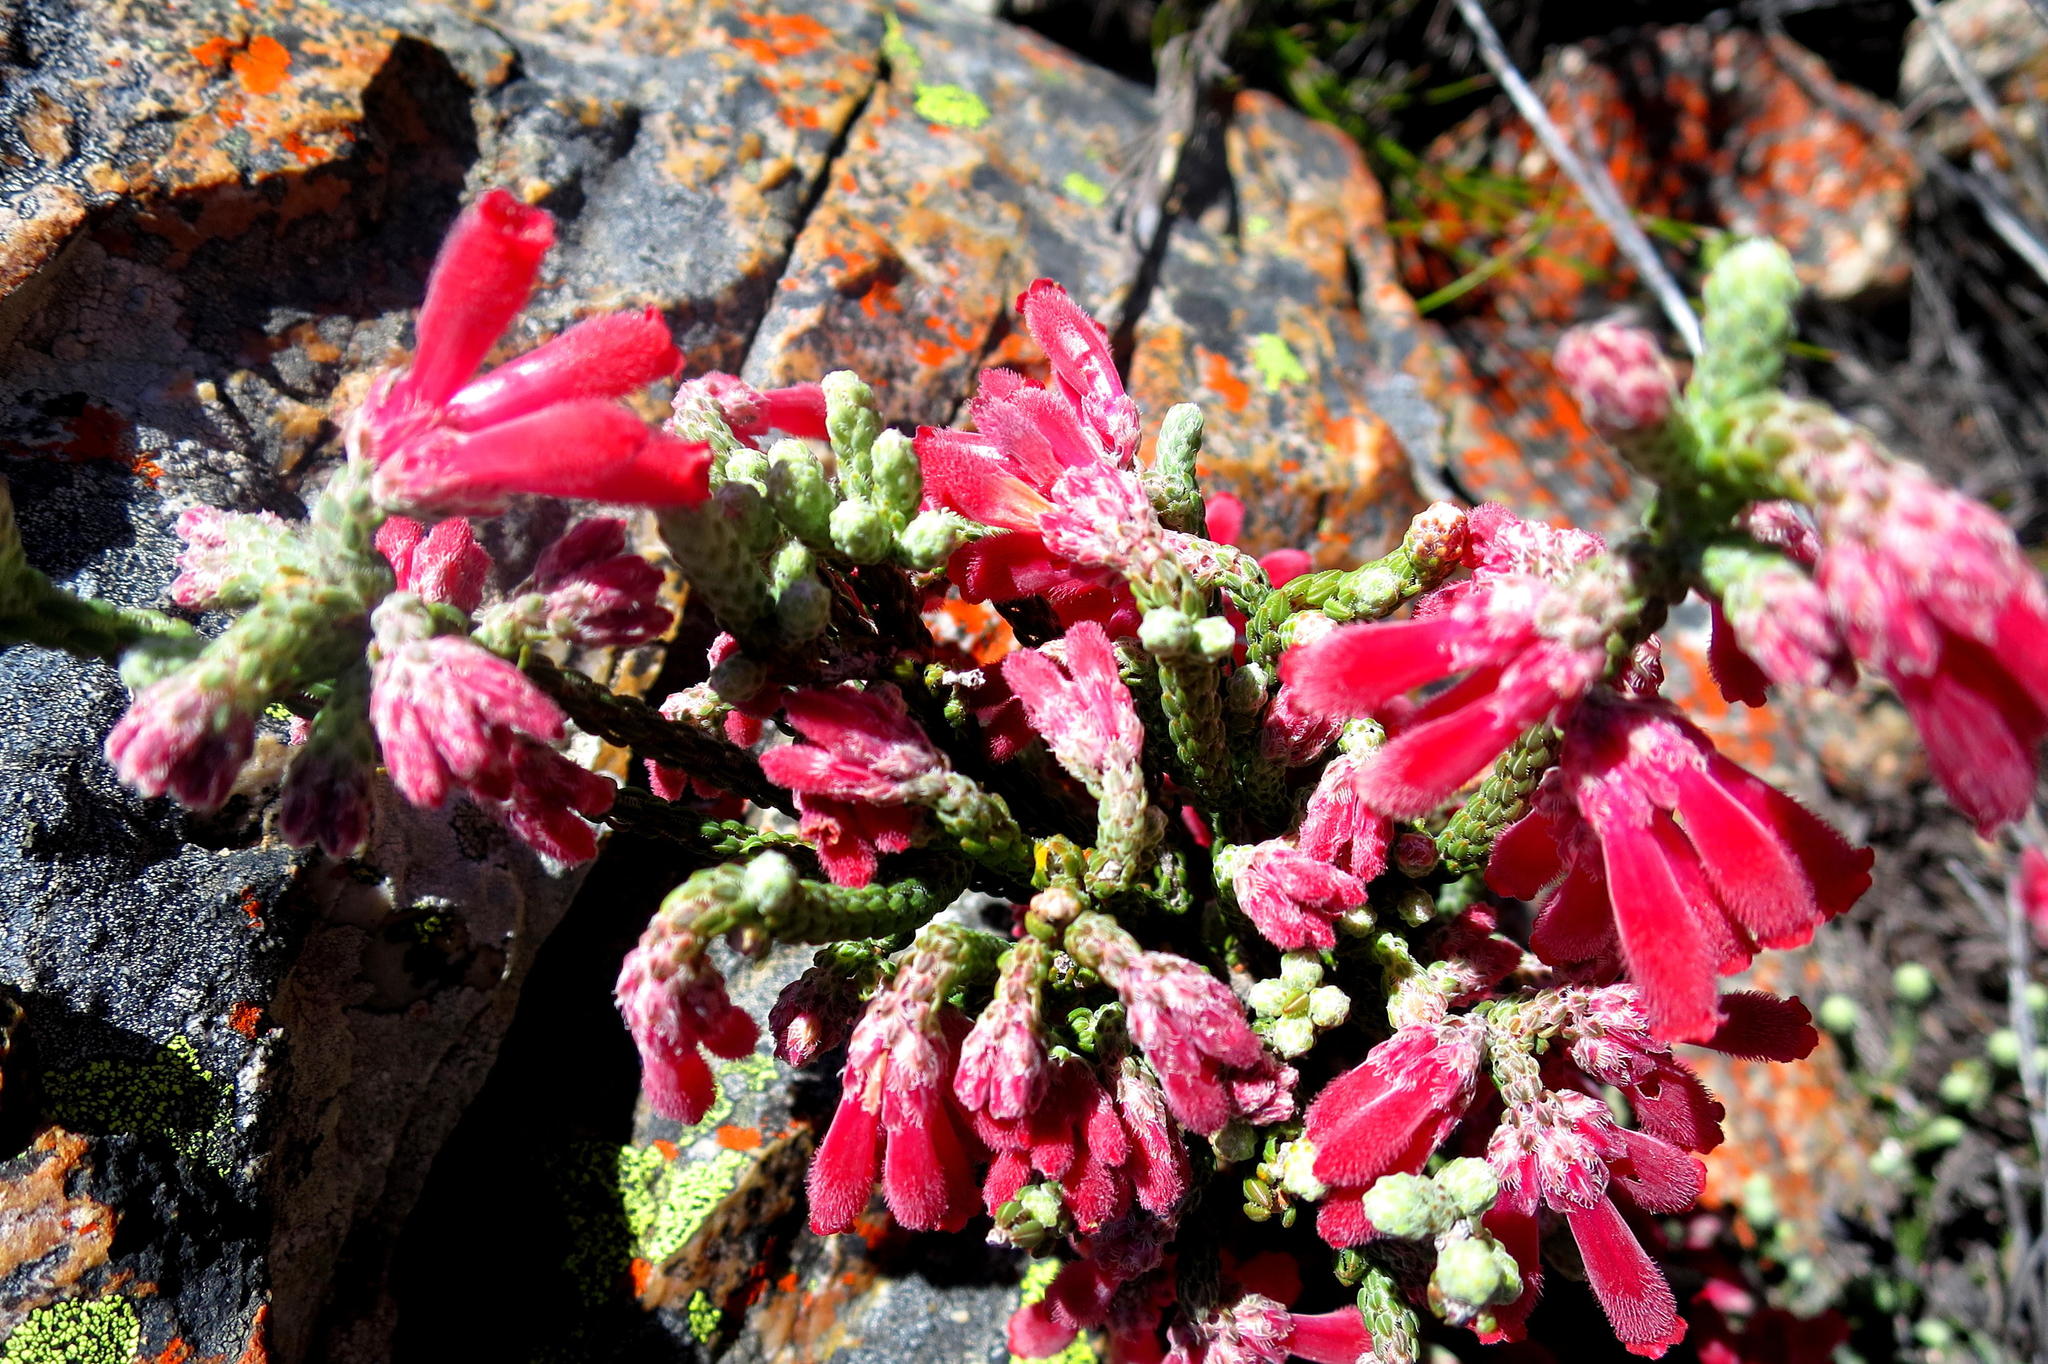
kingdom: Plantae
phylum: Tracheophyta
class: Magnoliopsida
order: Ericales
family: Ericaceae
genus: Erica
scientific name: Erica strigilifolia
